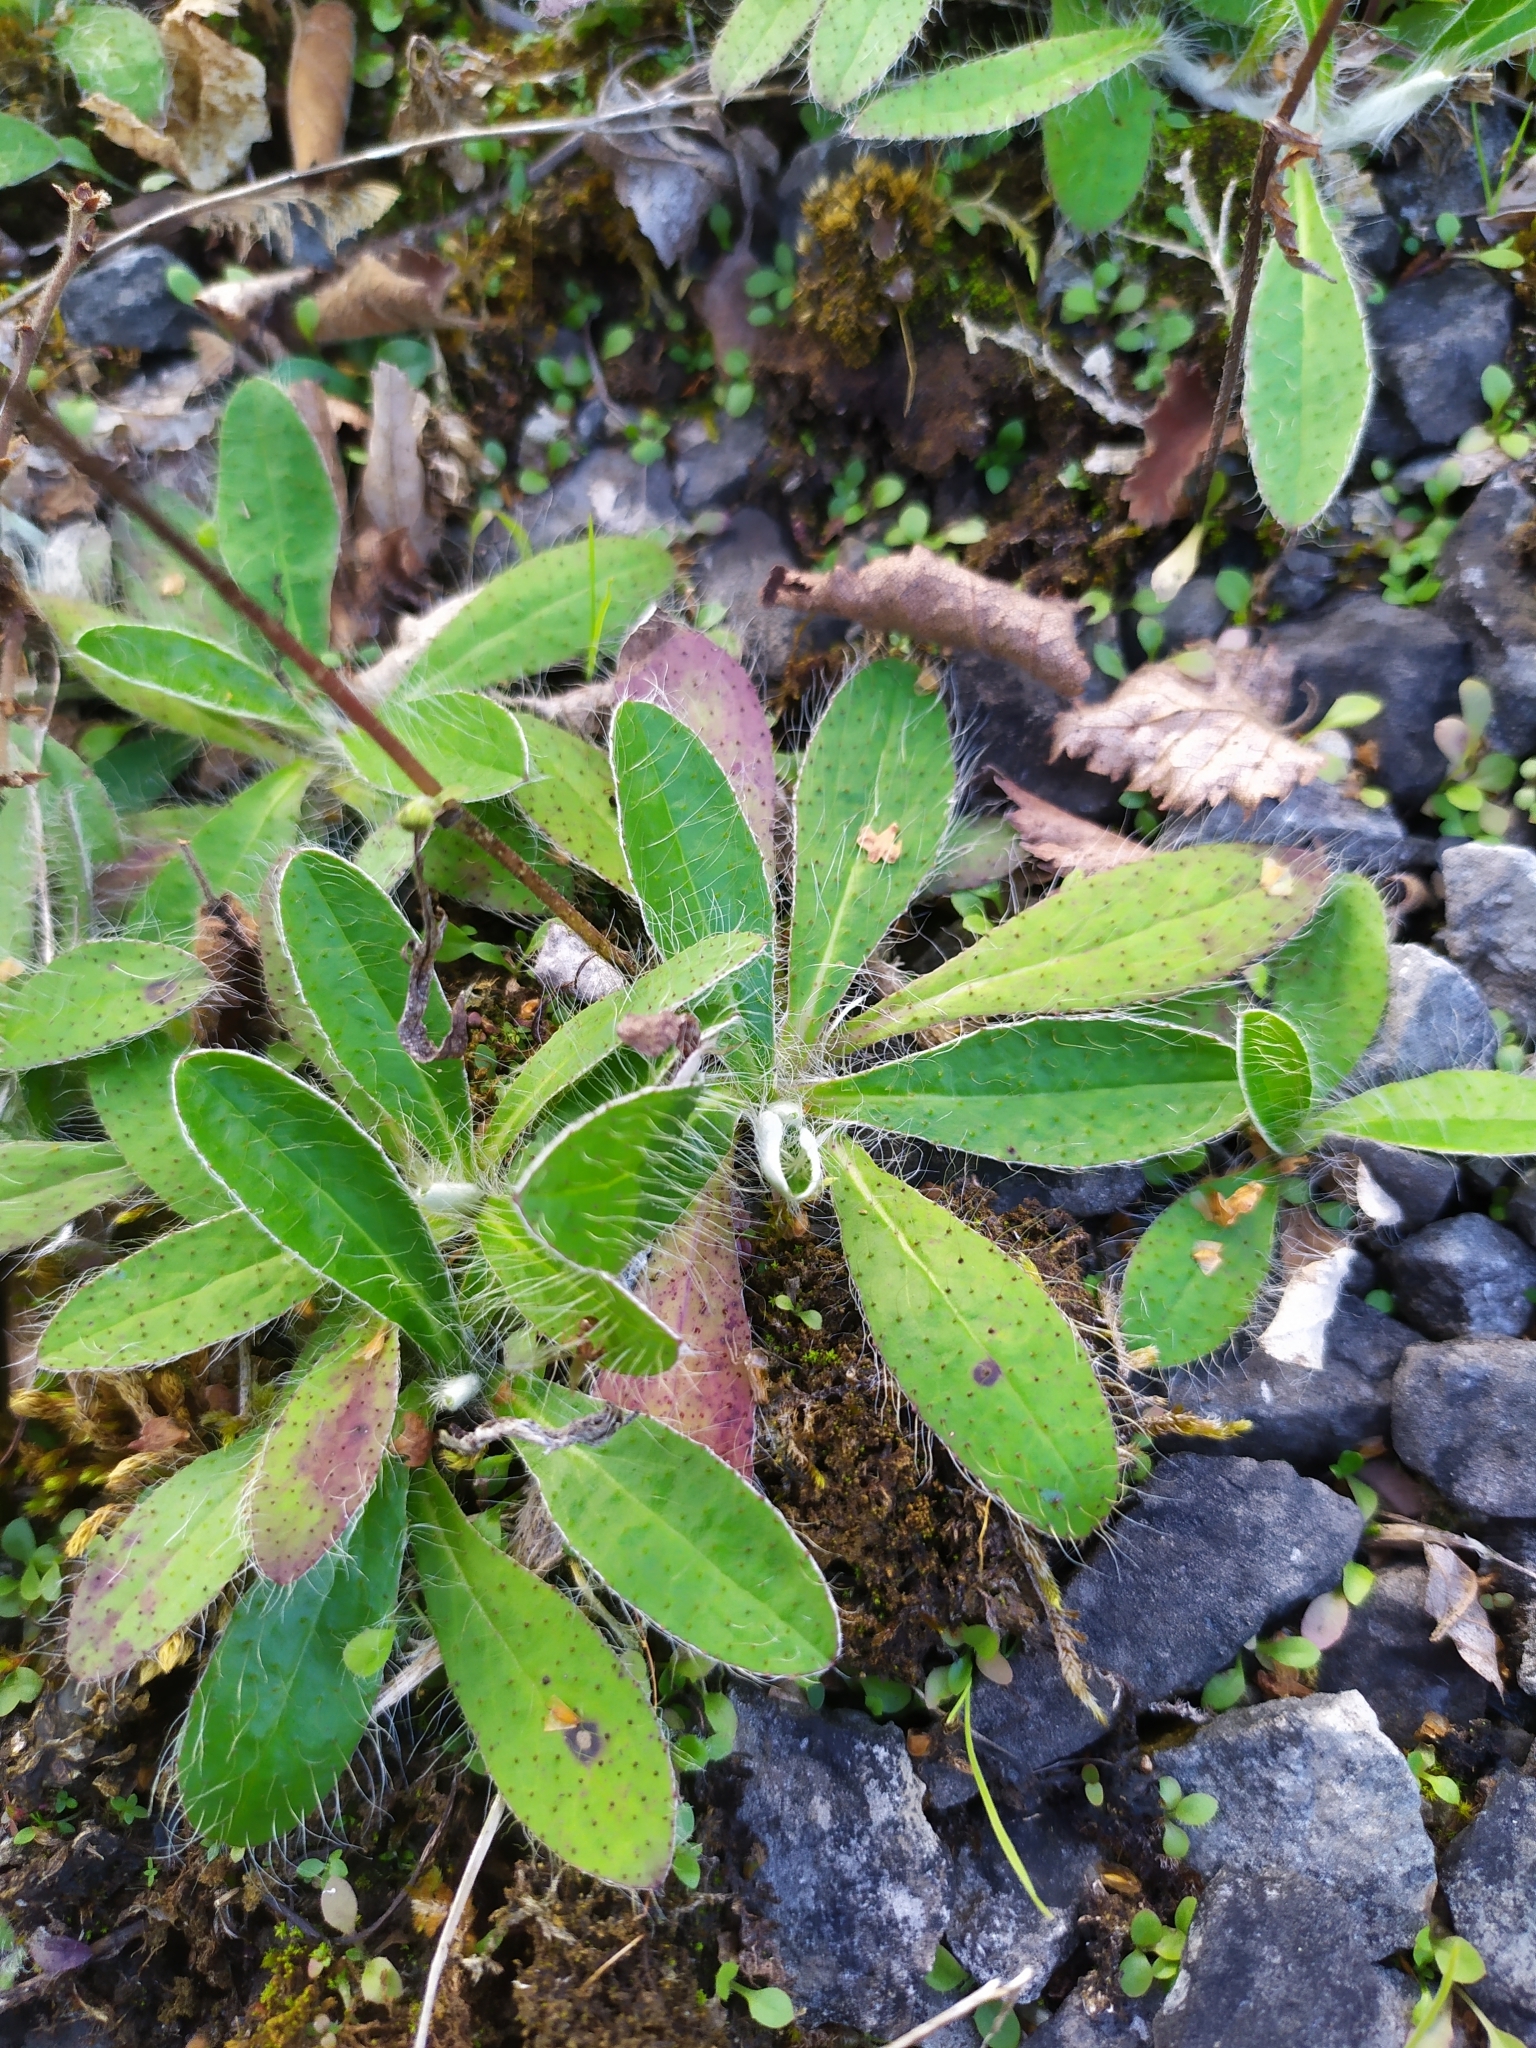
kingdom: Plantae
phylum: Tracheophyta
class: Magnoliopsida
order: Asterales
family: Asteraceae
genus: Pilosella
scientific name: Pilosella officinarum
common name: Mouse-ear hawkweed
